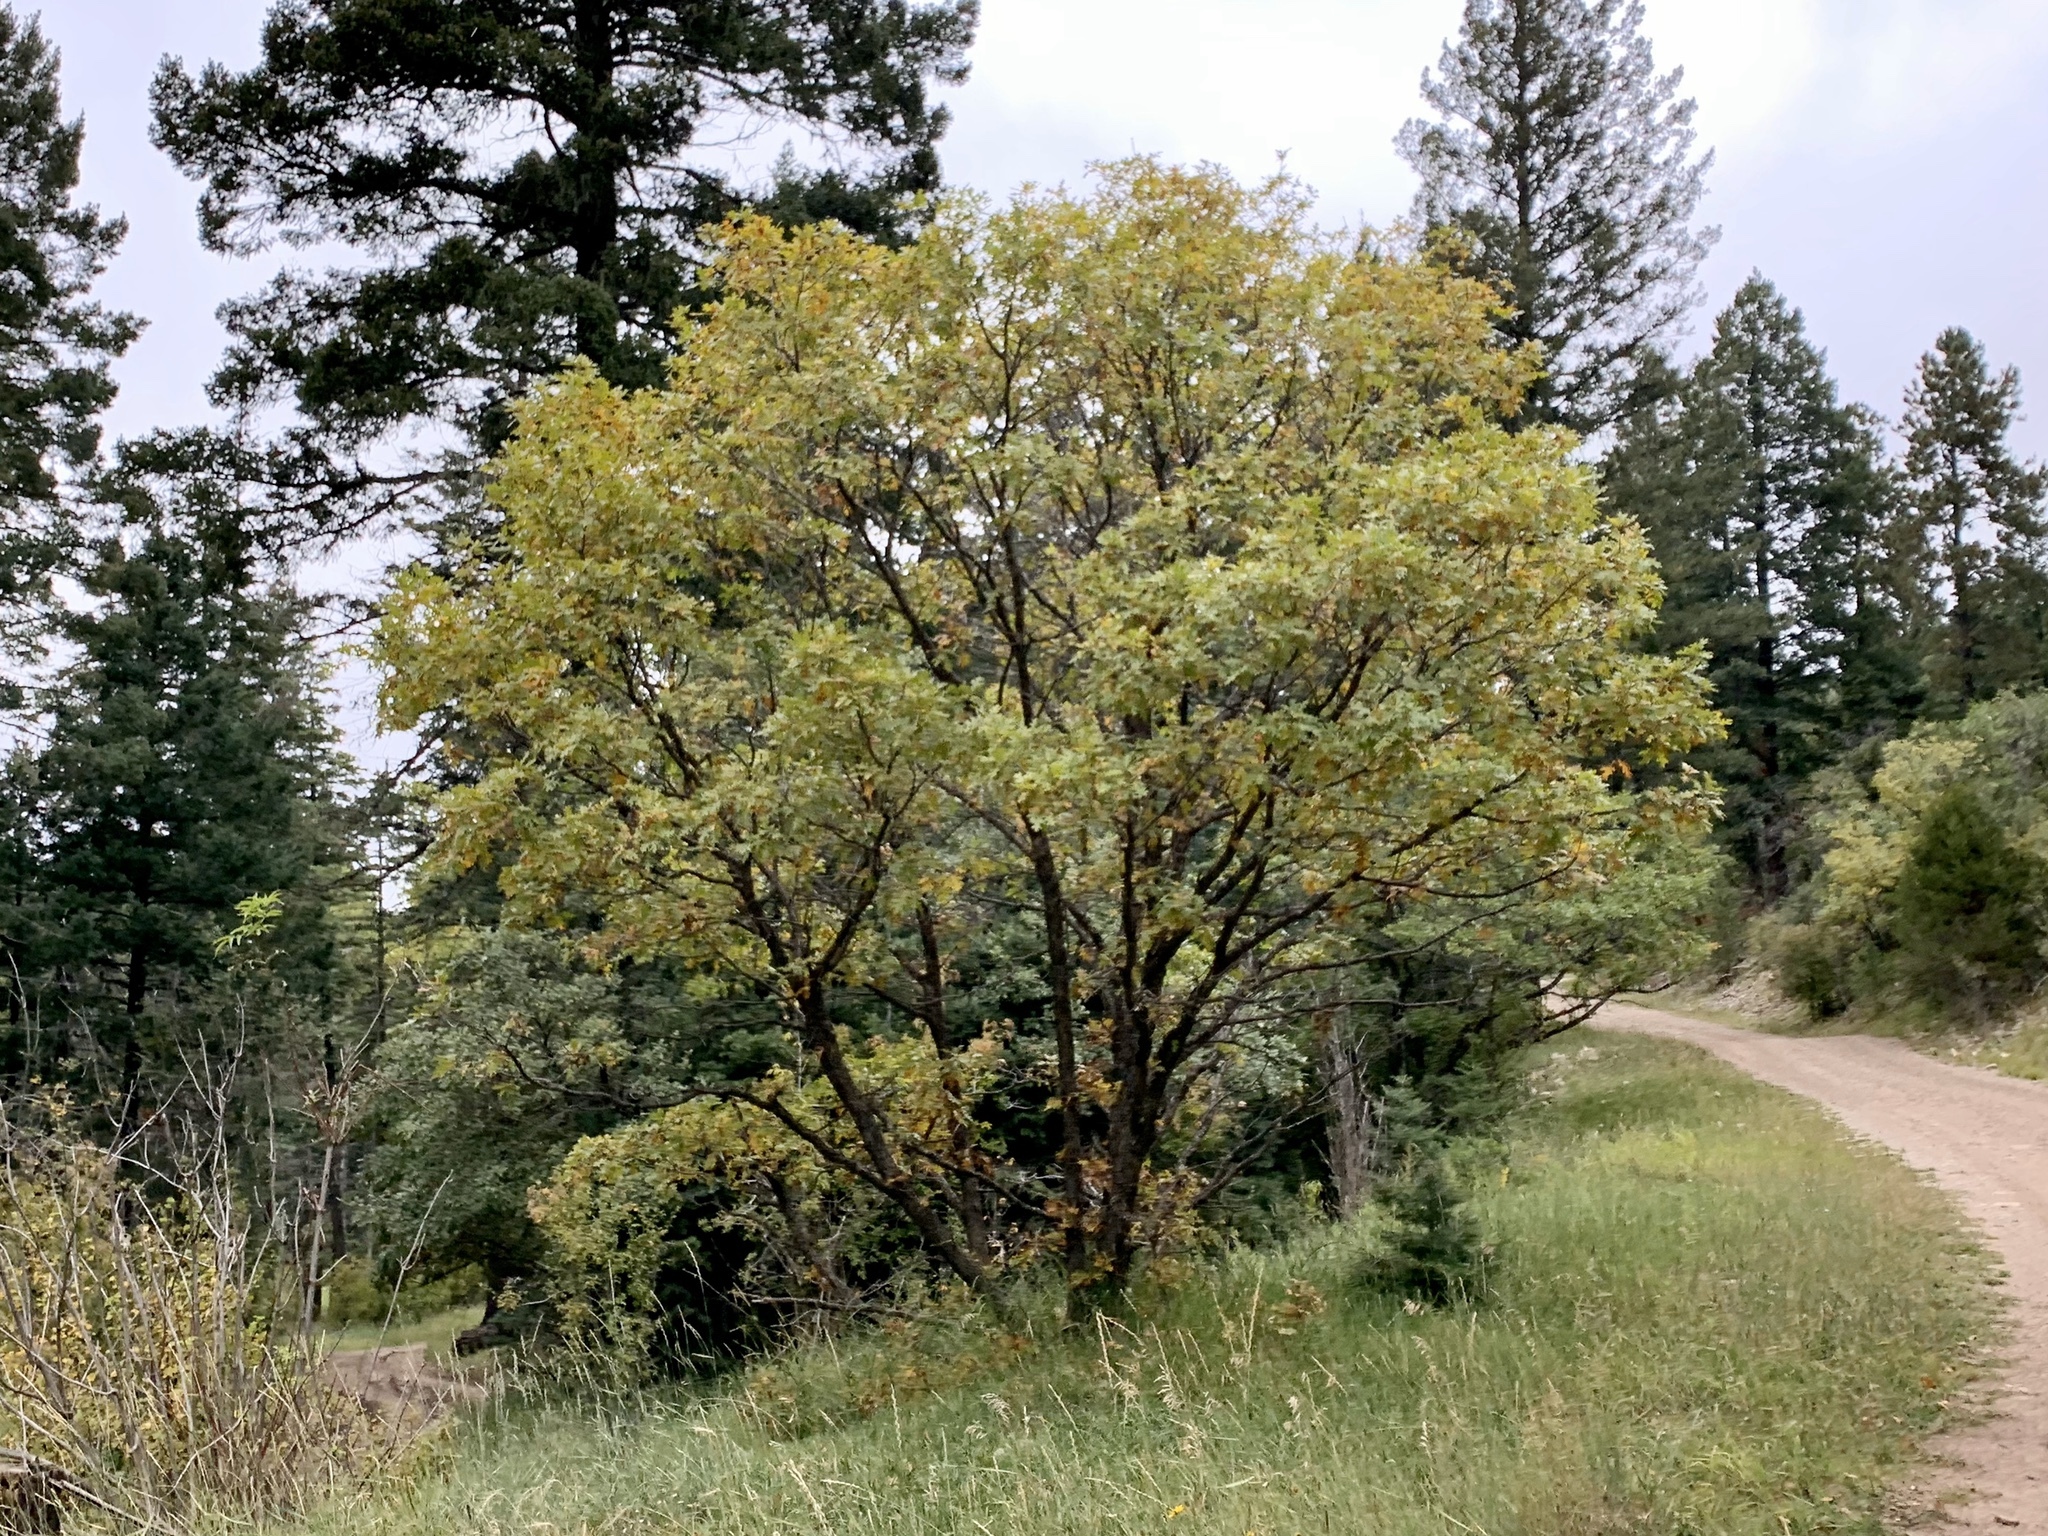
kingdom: Plantae
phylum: Tracheophyta
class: Magnoliopsida
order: Fagales
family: Fagaceae
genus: Quercus
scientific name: Quercus gambelii
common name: Gambel oak
